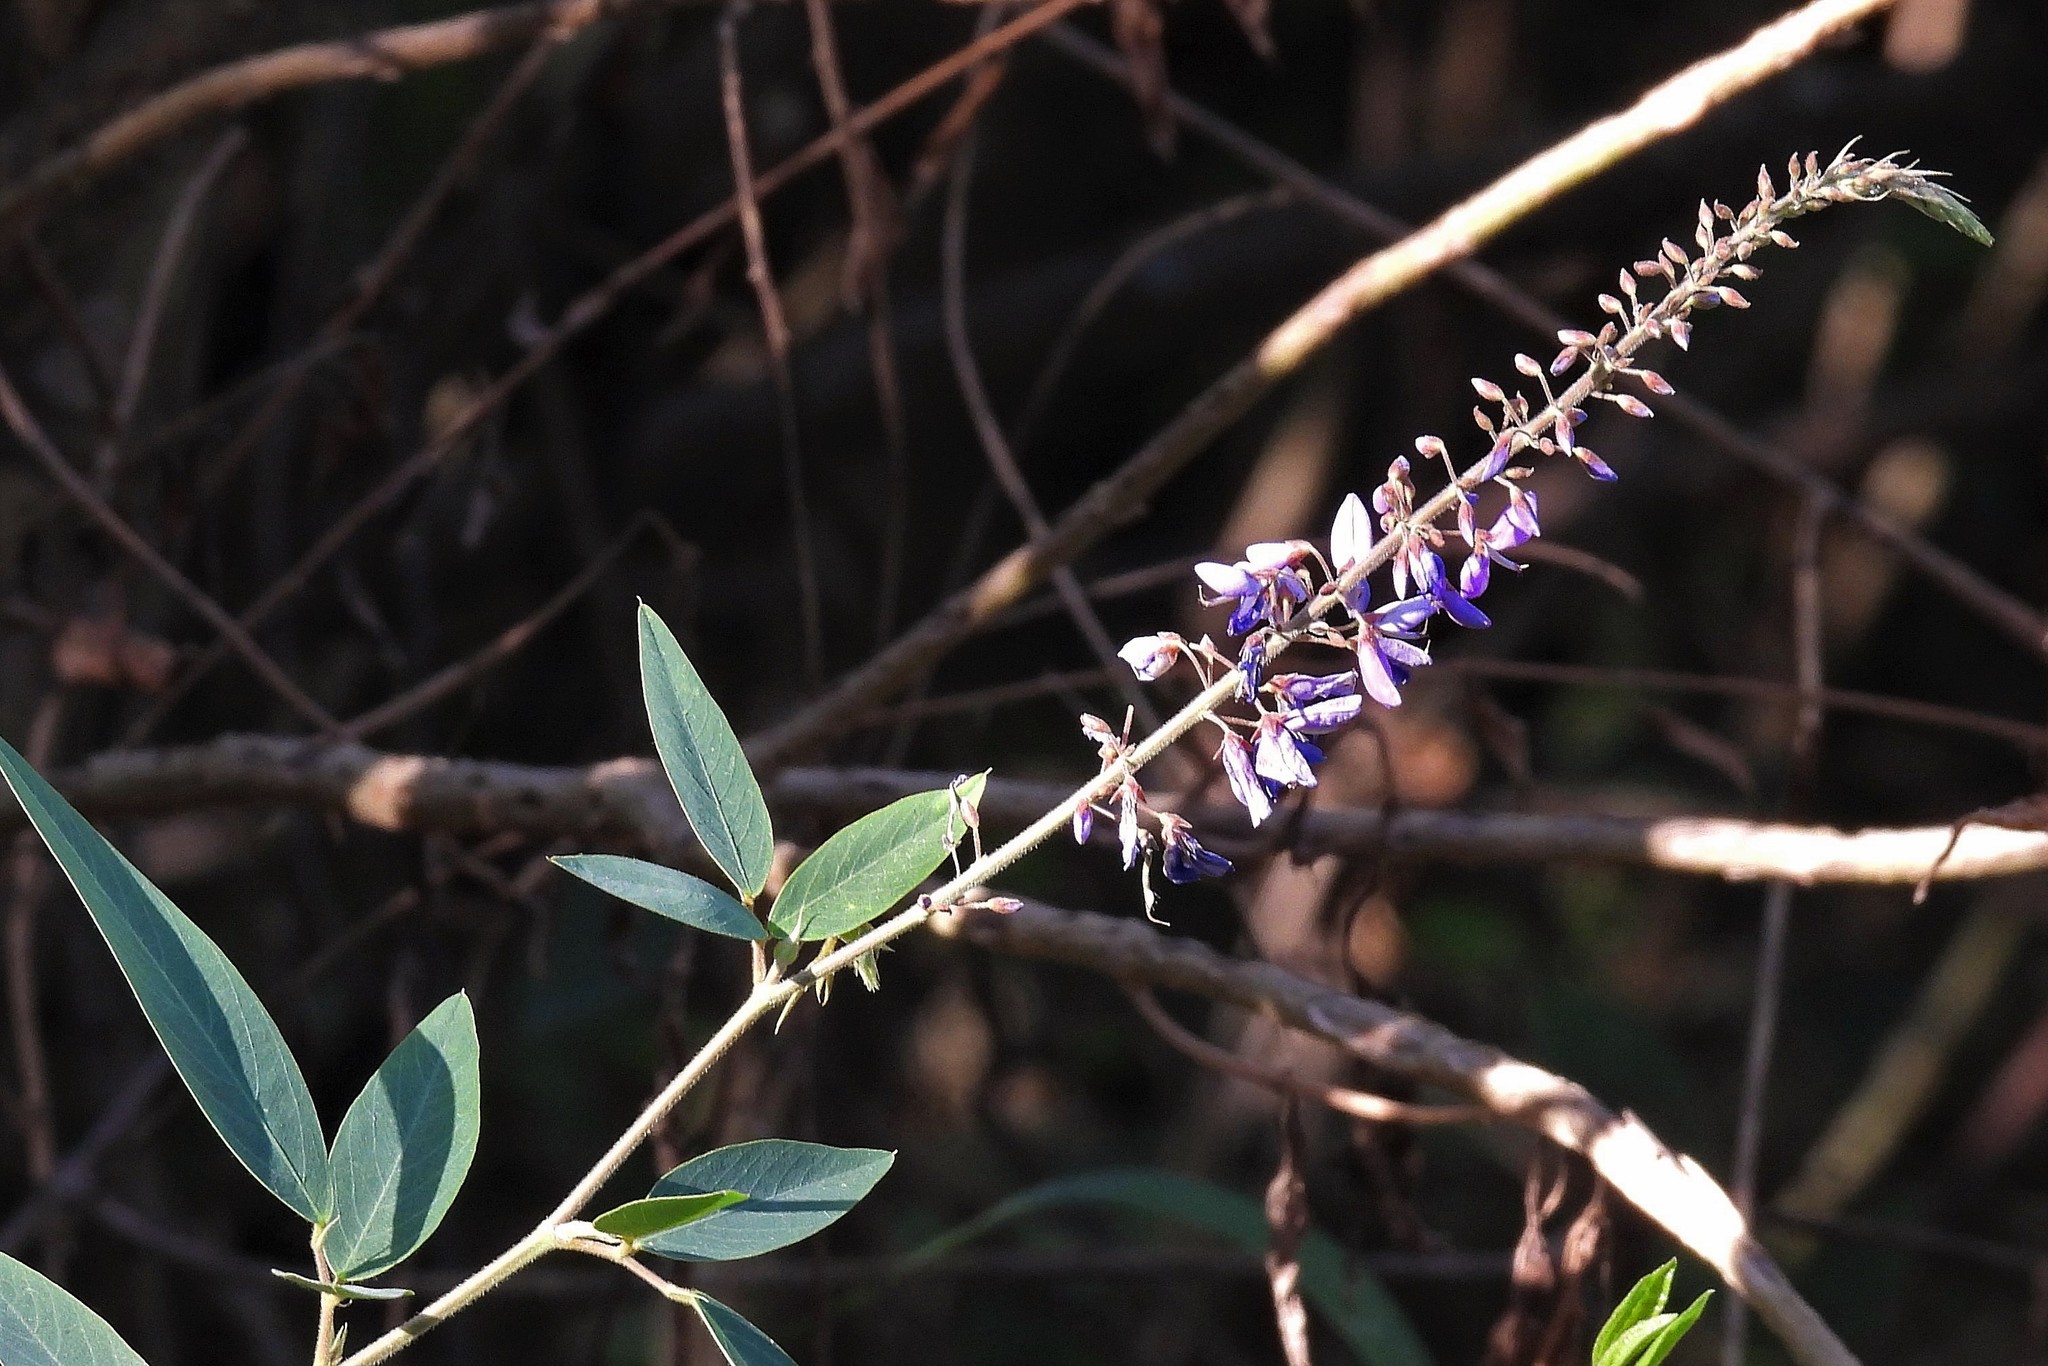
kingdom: Plantae
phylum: Tracheophyta
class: Magnoliopsida
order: Fabales
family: Fabaceae
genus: Desmodium
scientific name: Desmodium bridgesii
